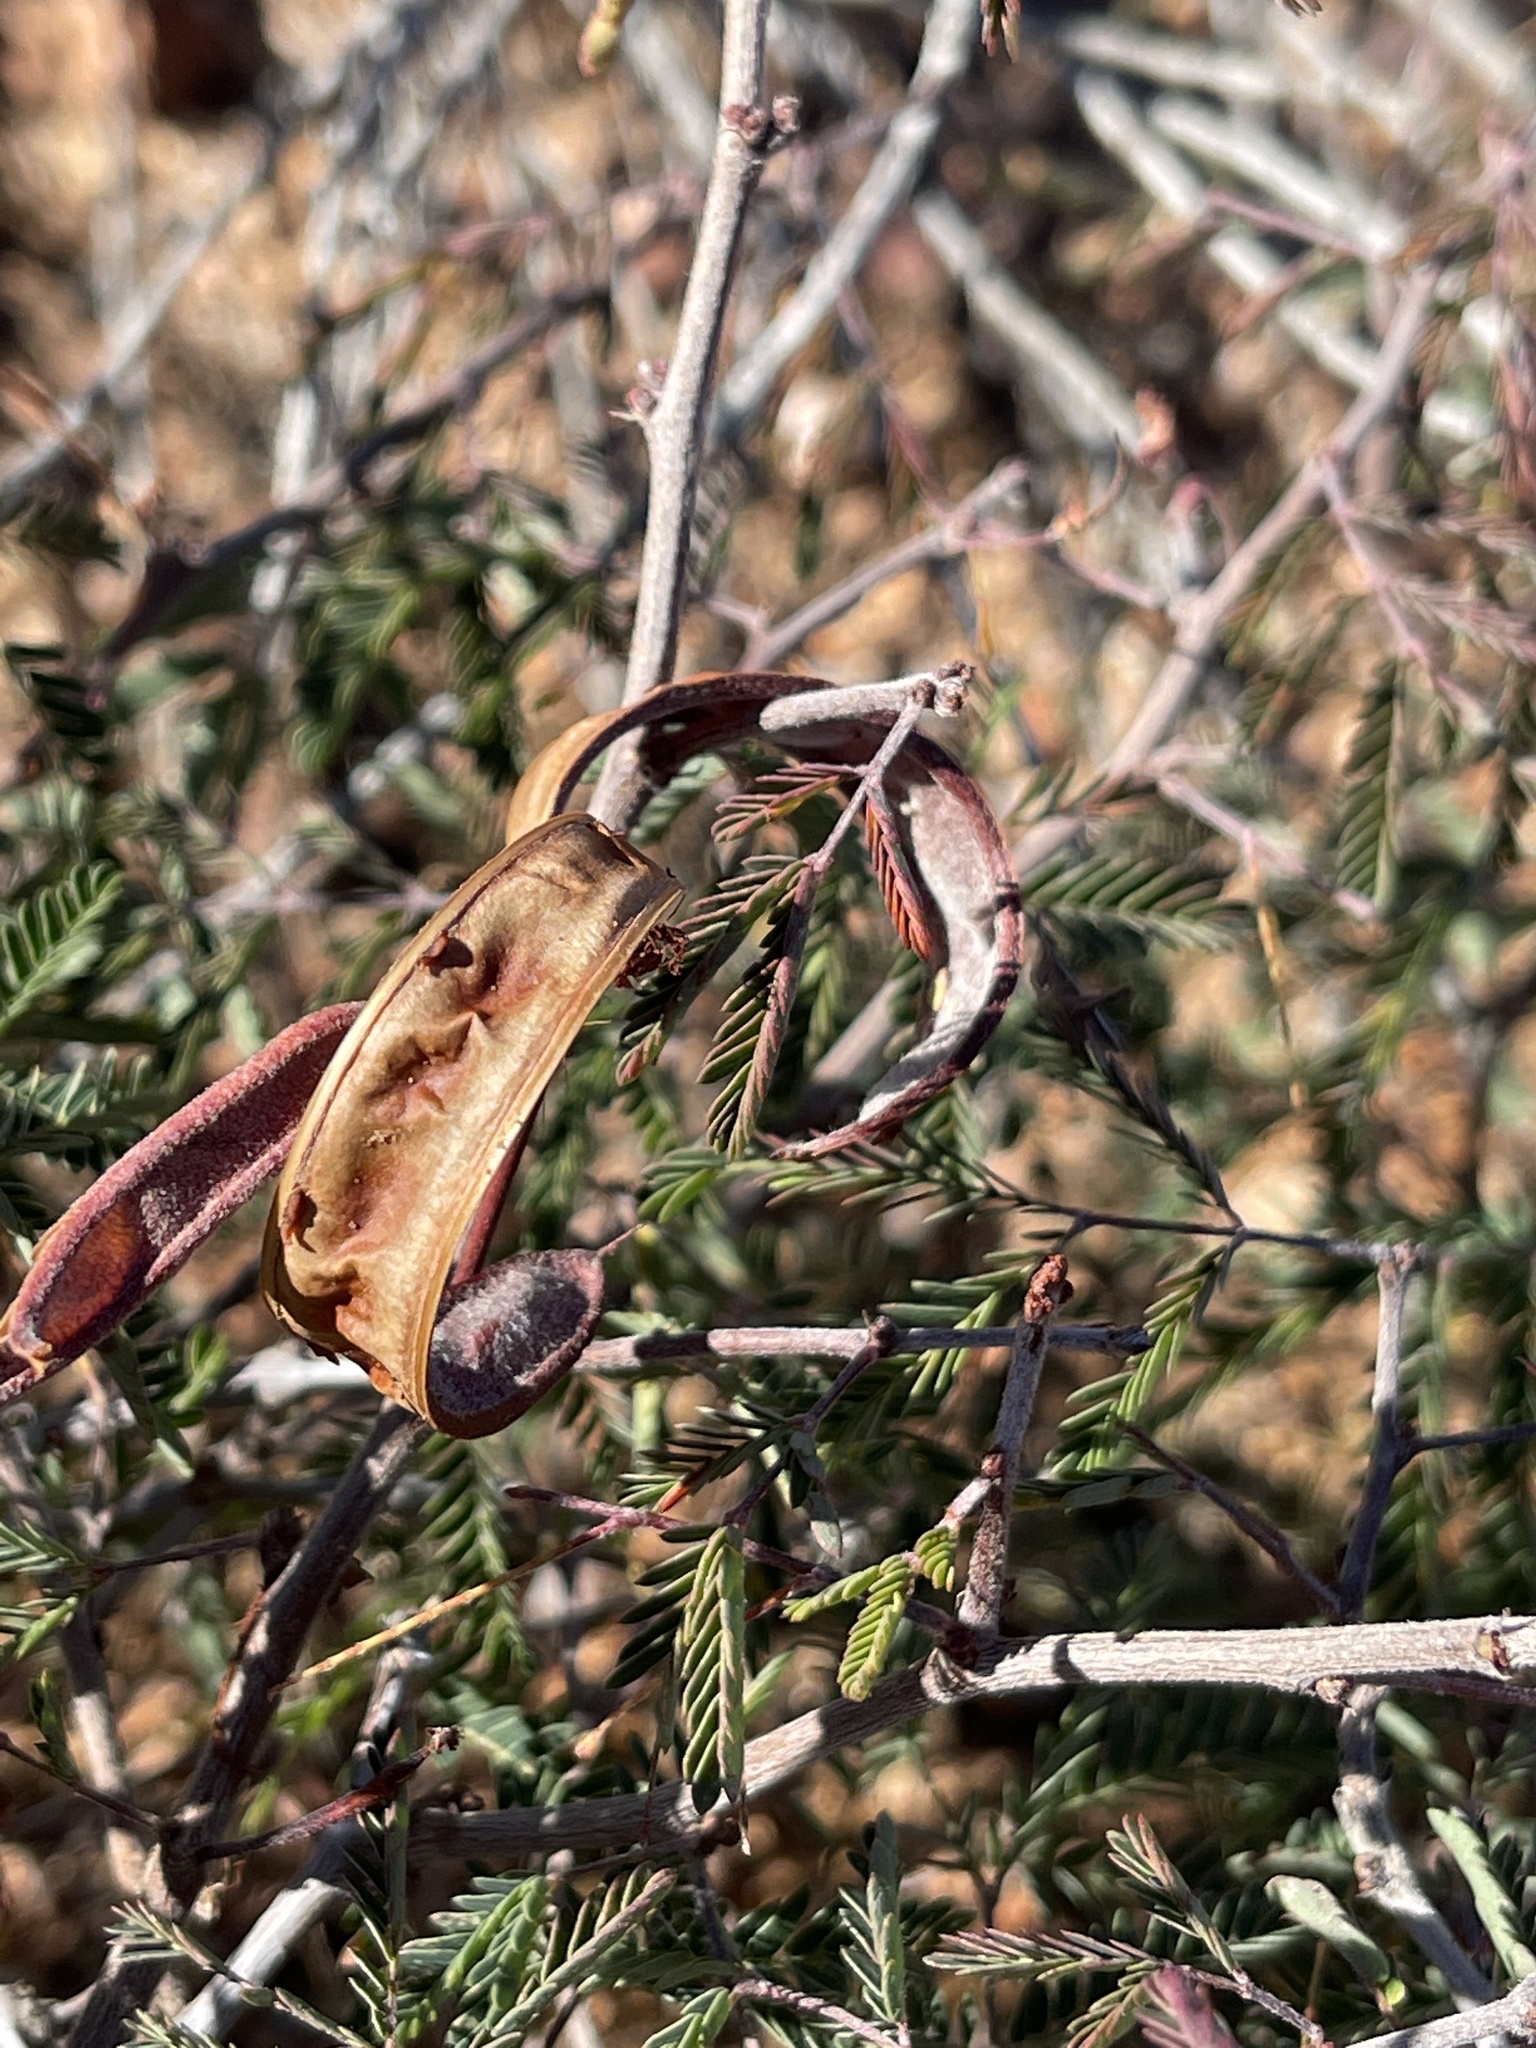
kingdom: Plantae
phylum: Tracheophyta
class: Magnoliopsida
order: Fabales
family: Fabaceae
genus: Calliandra
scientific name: Calliandra eriophylla
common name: Fairy-duster
